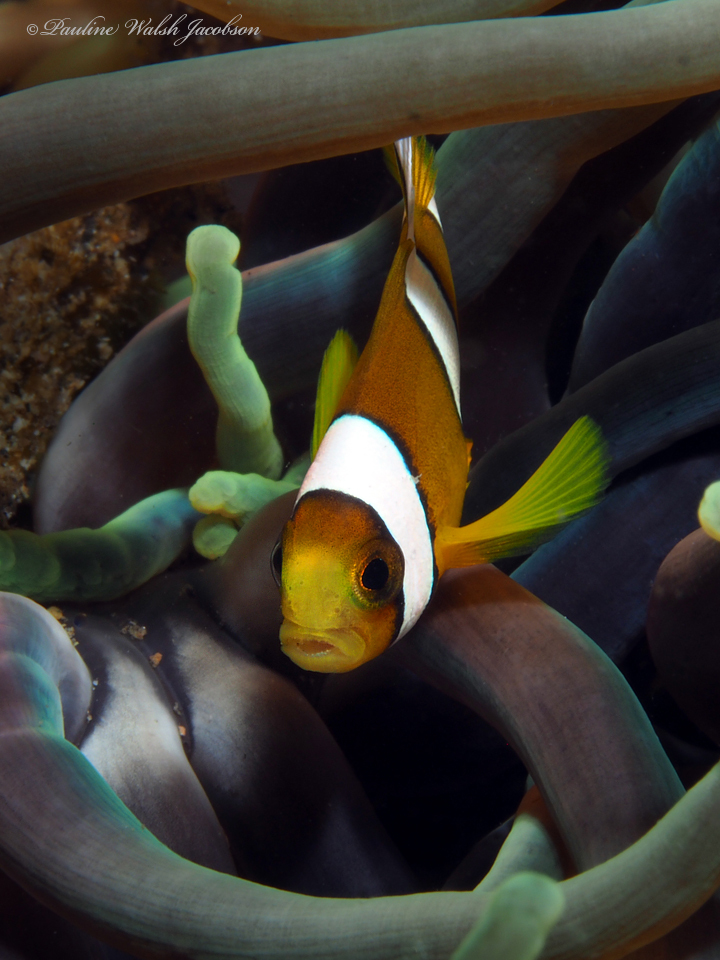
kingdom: Animalia
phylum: Chordata
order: Perciformes
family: Pomacentridae
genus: Amphiprion
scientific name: Amphiprion clarkii
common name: Clark's anemonefish
